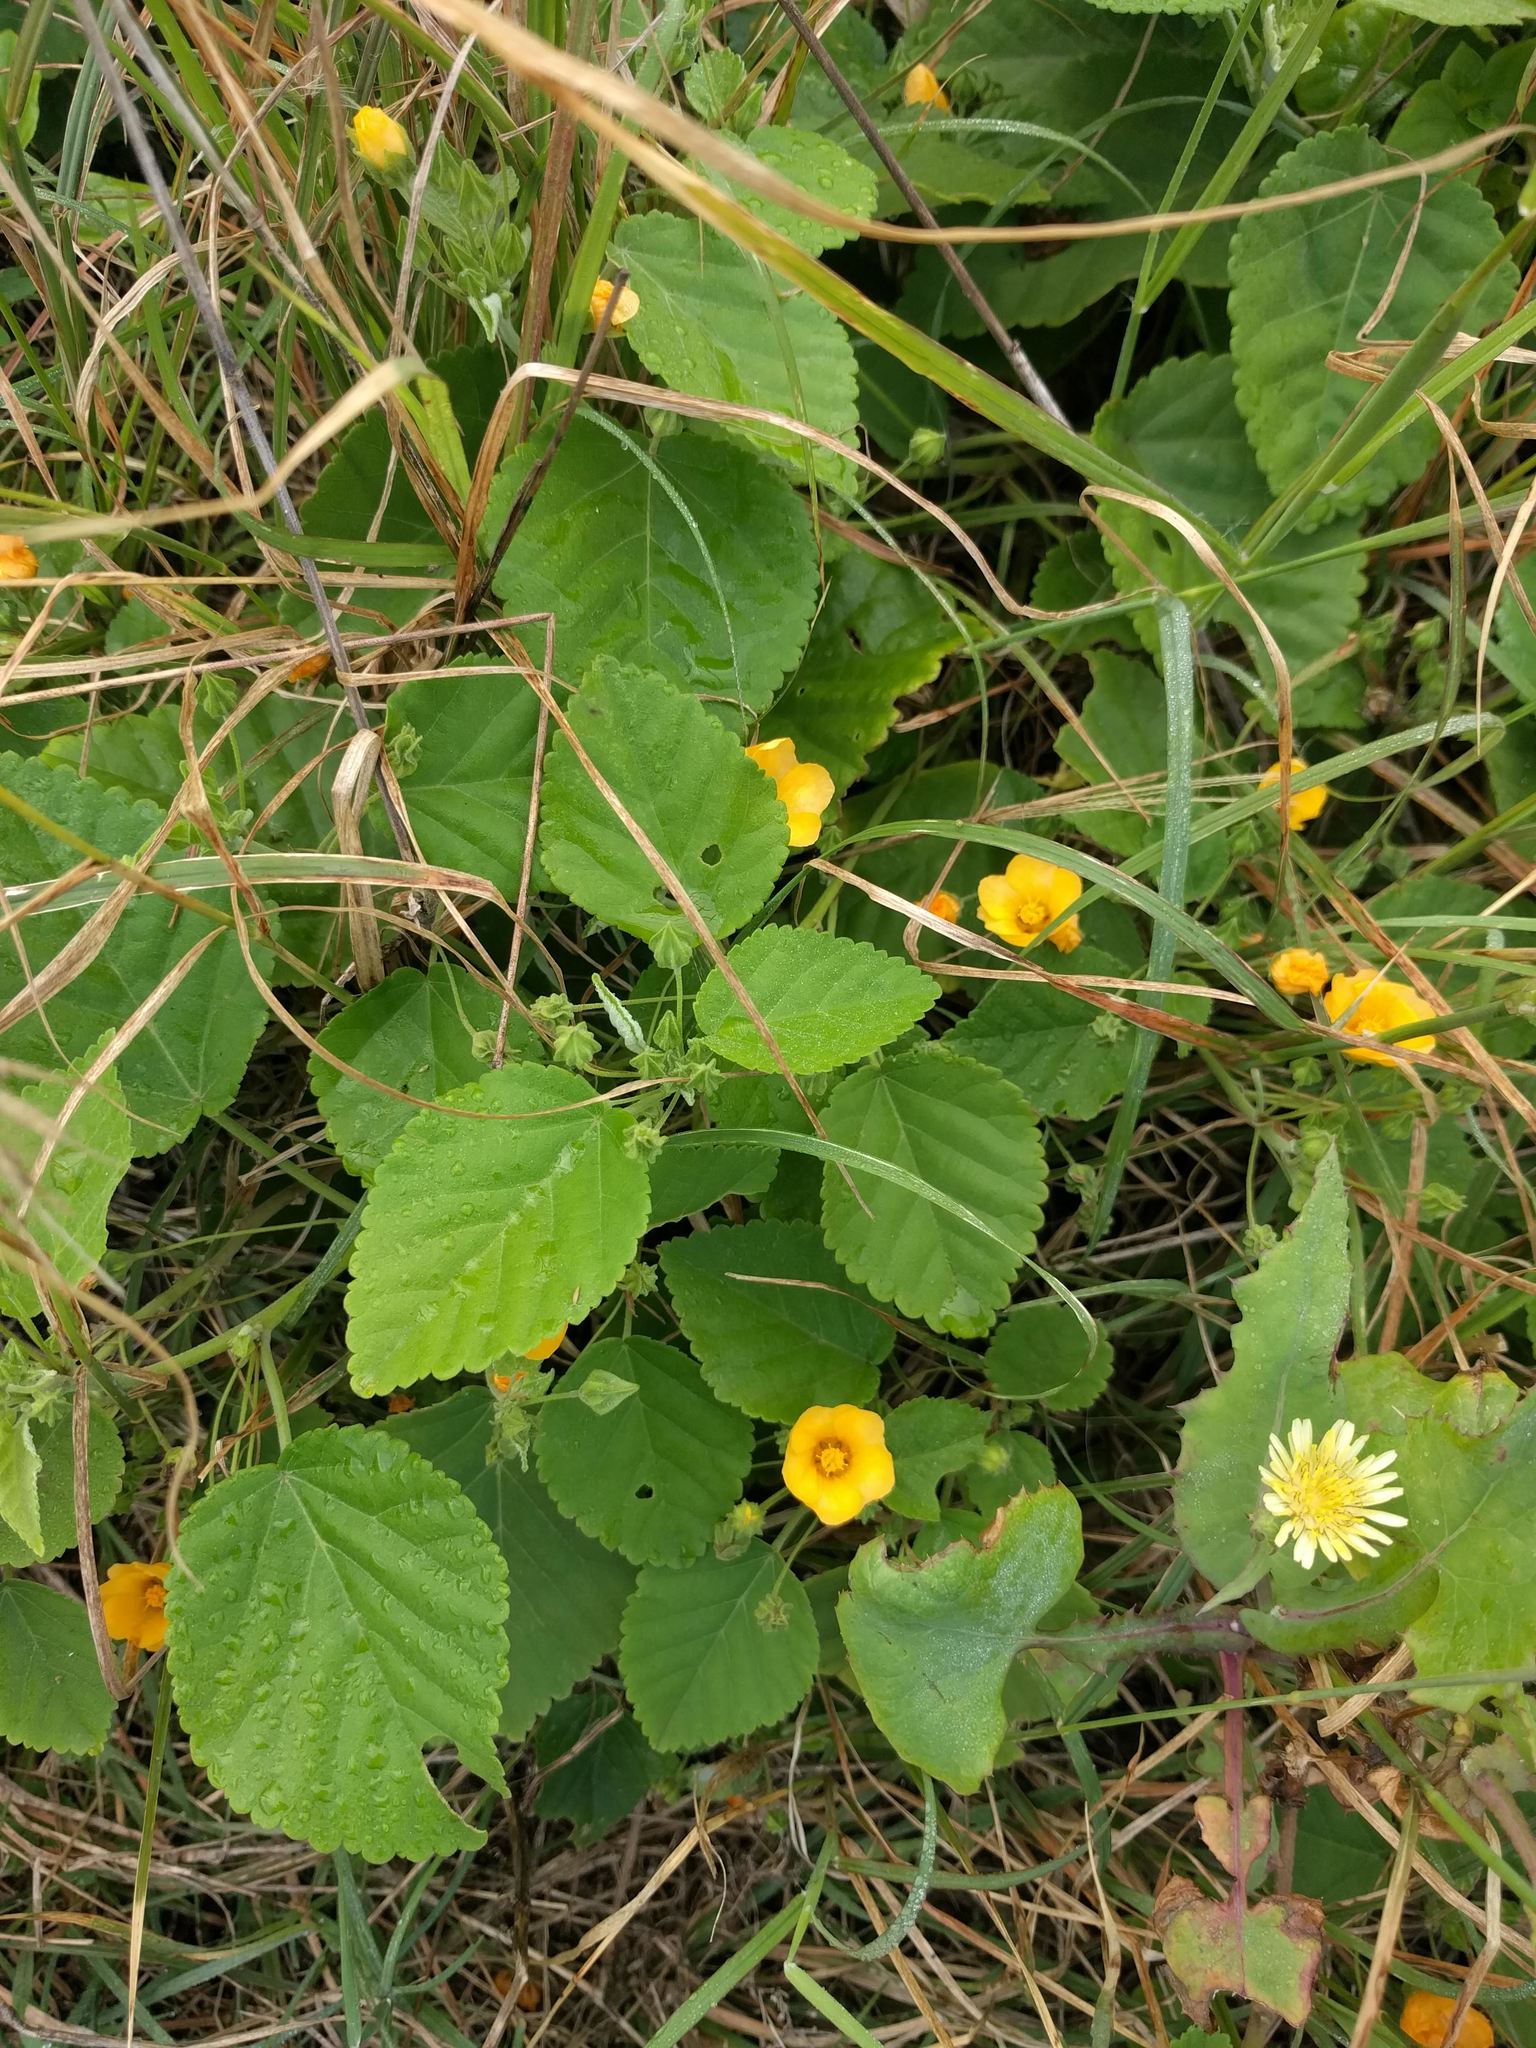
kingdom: Plantae
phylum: Tracheophyta
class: Magnoliopsida
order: Malvales
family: Malvaceae
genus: Sida
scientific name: Sida fallax
